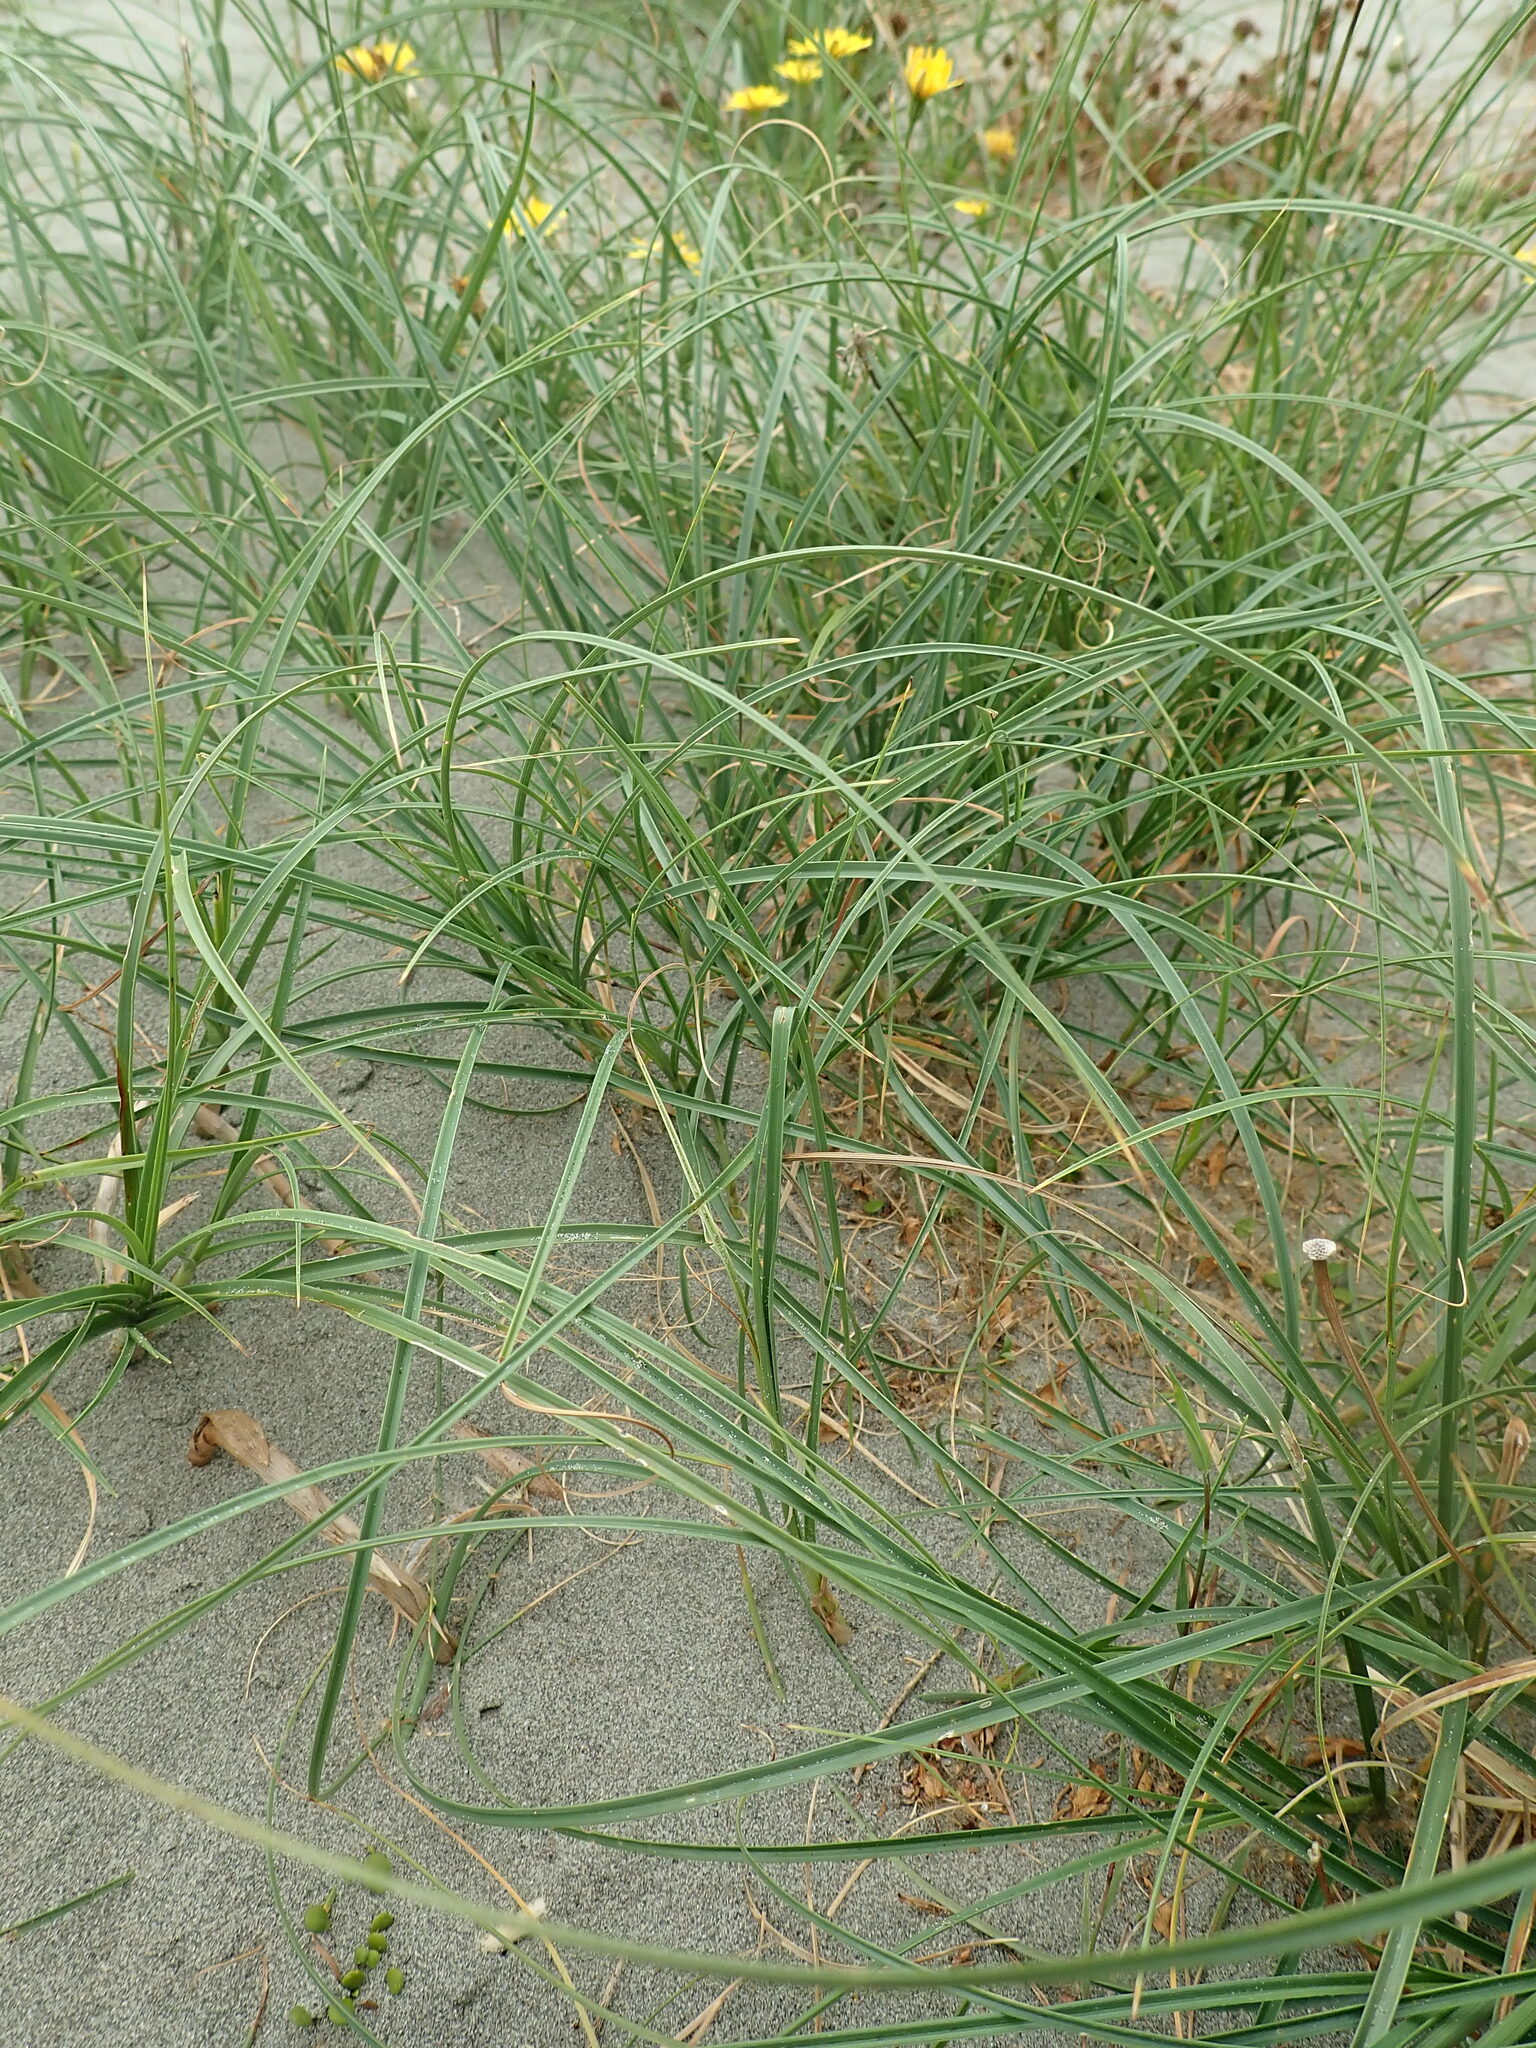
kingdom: Plantae
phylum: Tracheophyta
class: Liliopsida
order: Poales
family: Cyperaceae
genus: Carex
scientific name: Carex pumila
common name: Dwarf sedge
